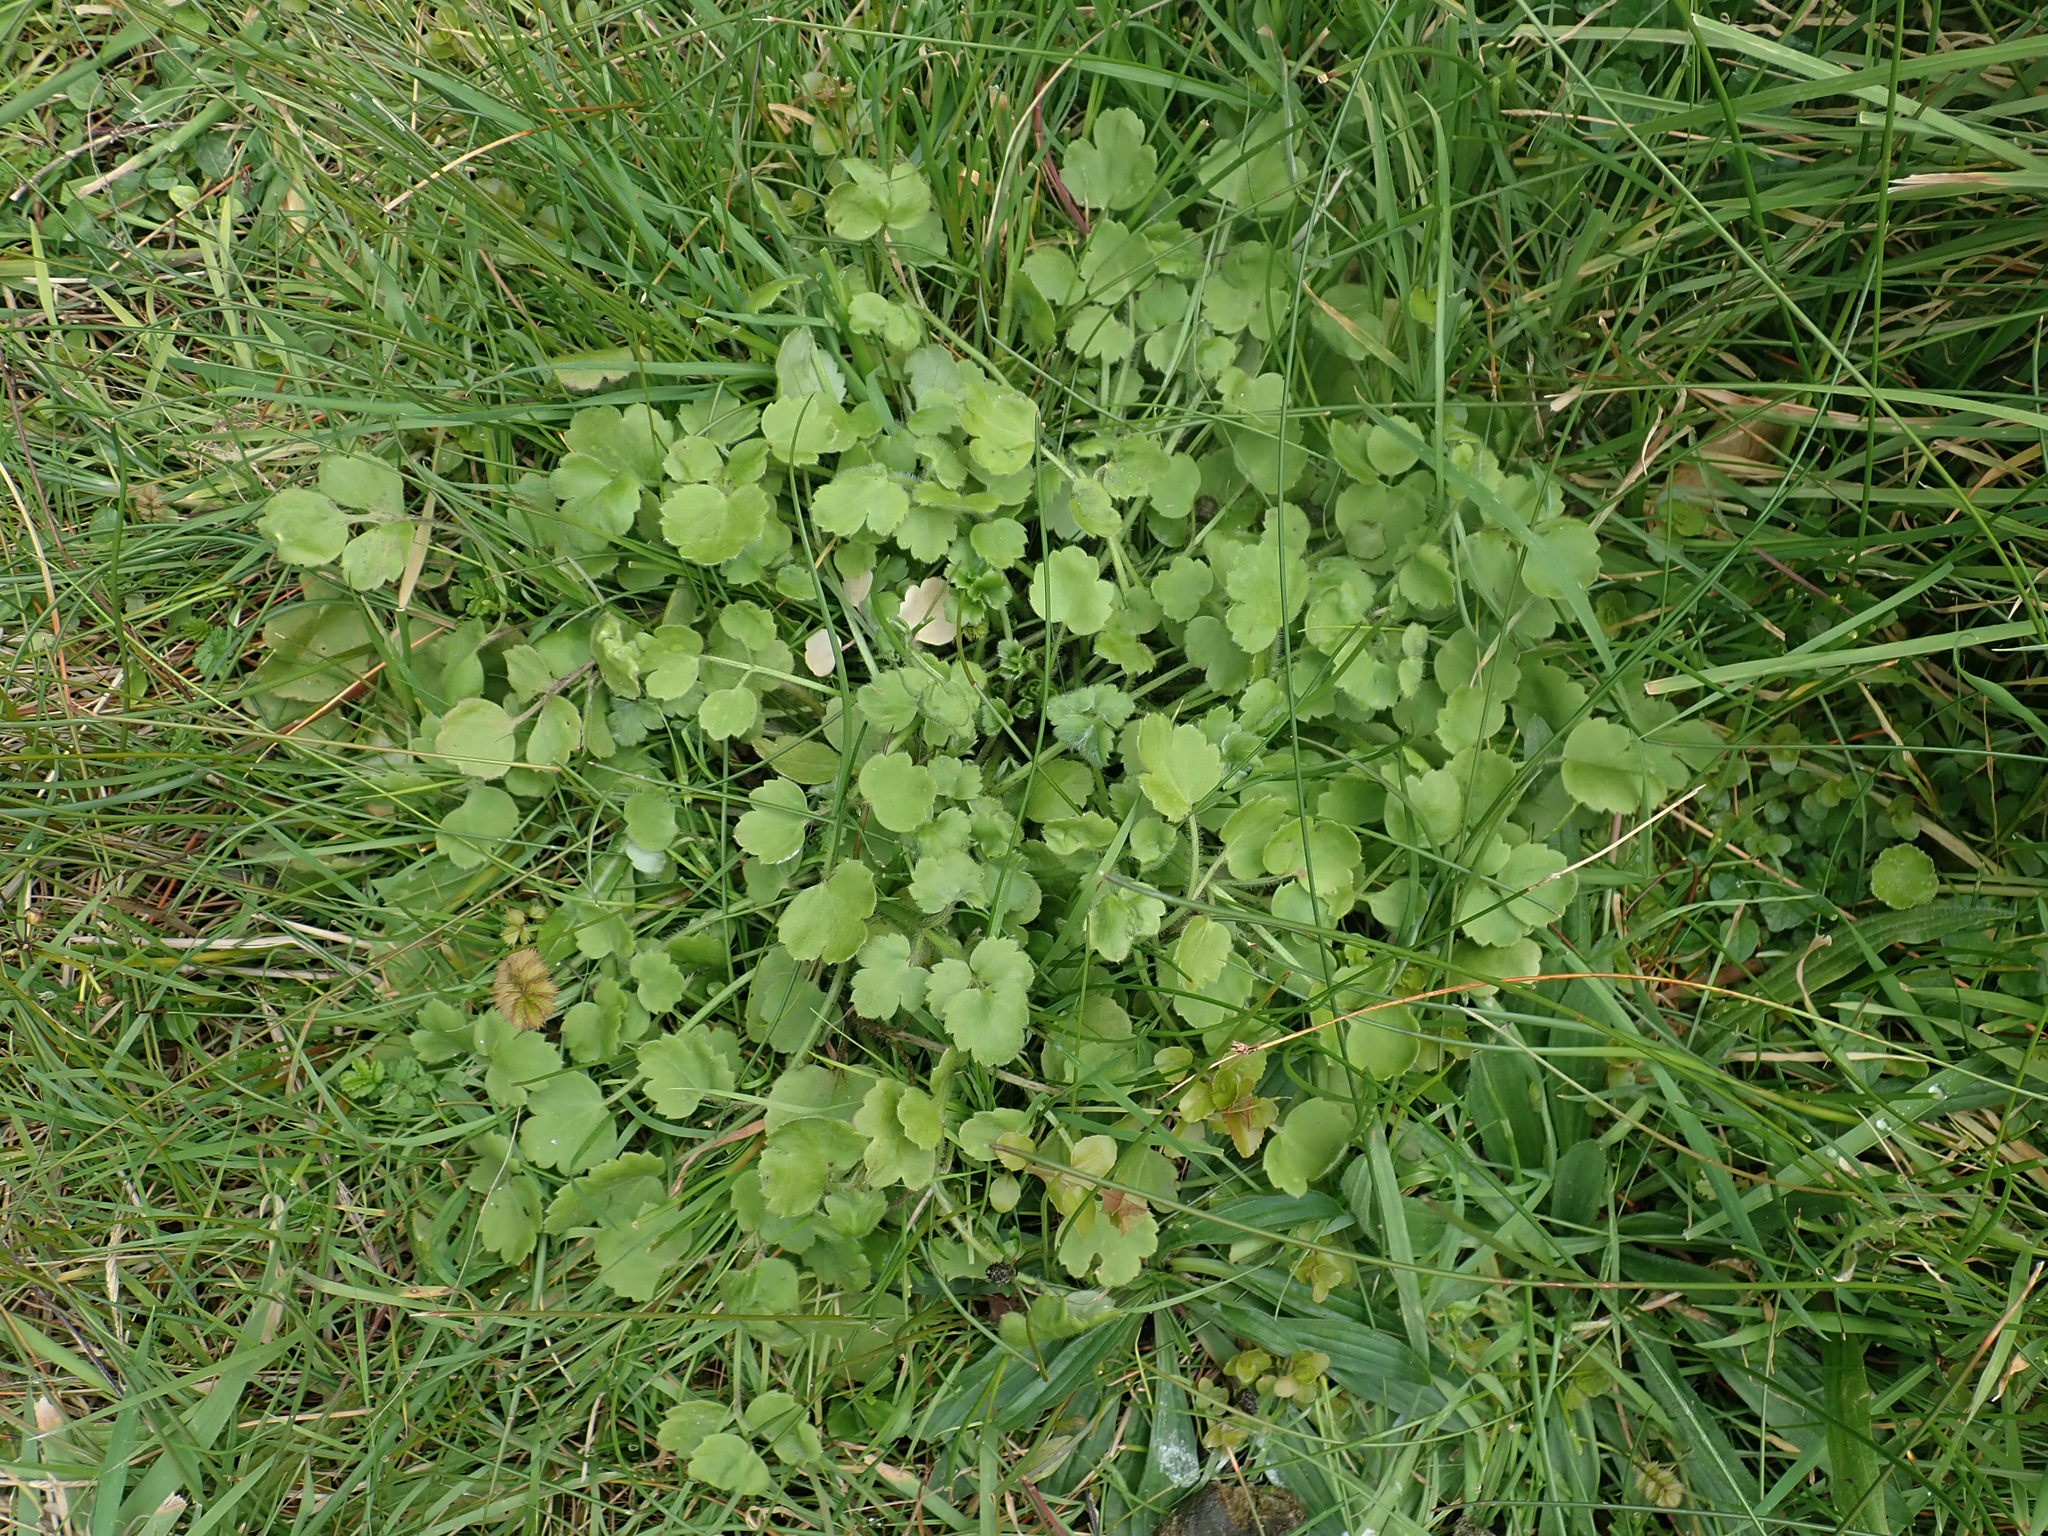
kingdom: Plantae
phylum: Tracheophyta
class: Magnoliopsida
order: Ranunculales
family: Ranunculaceae
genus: Ranunculus
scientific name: Ranunculus reflexus
